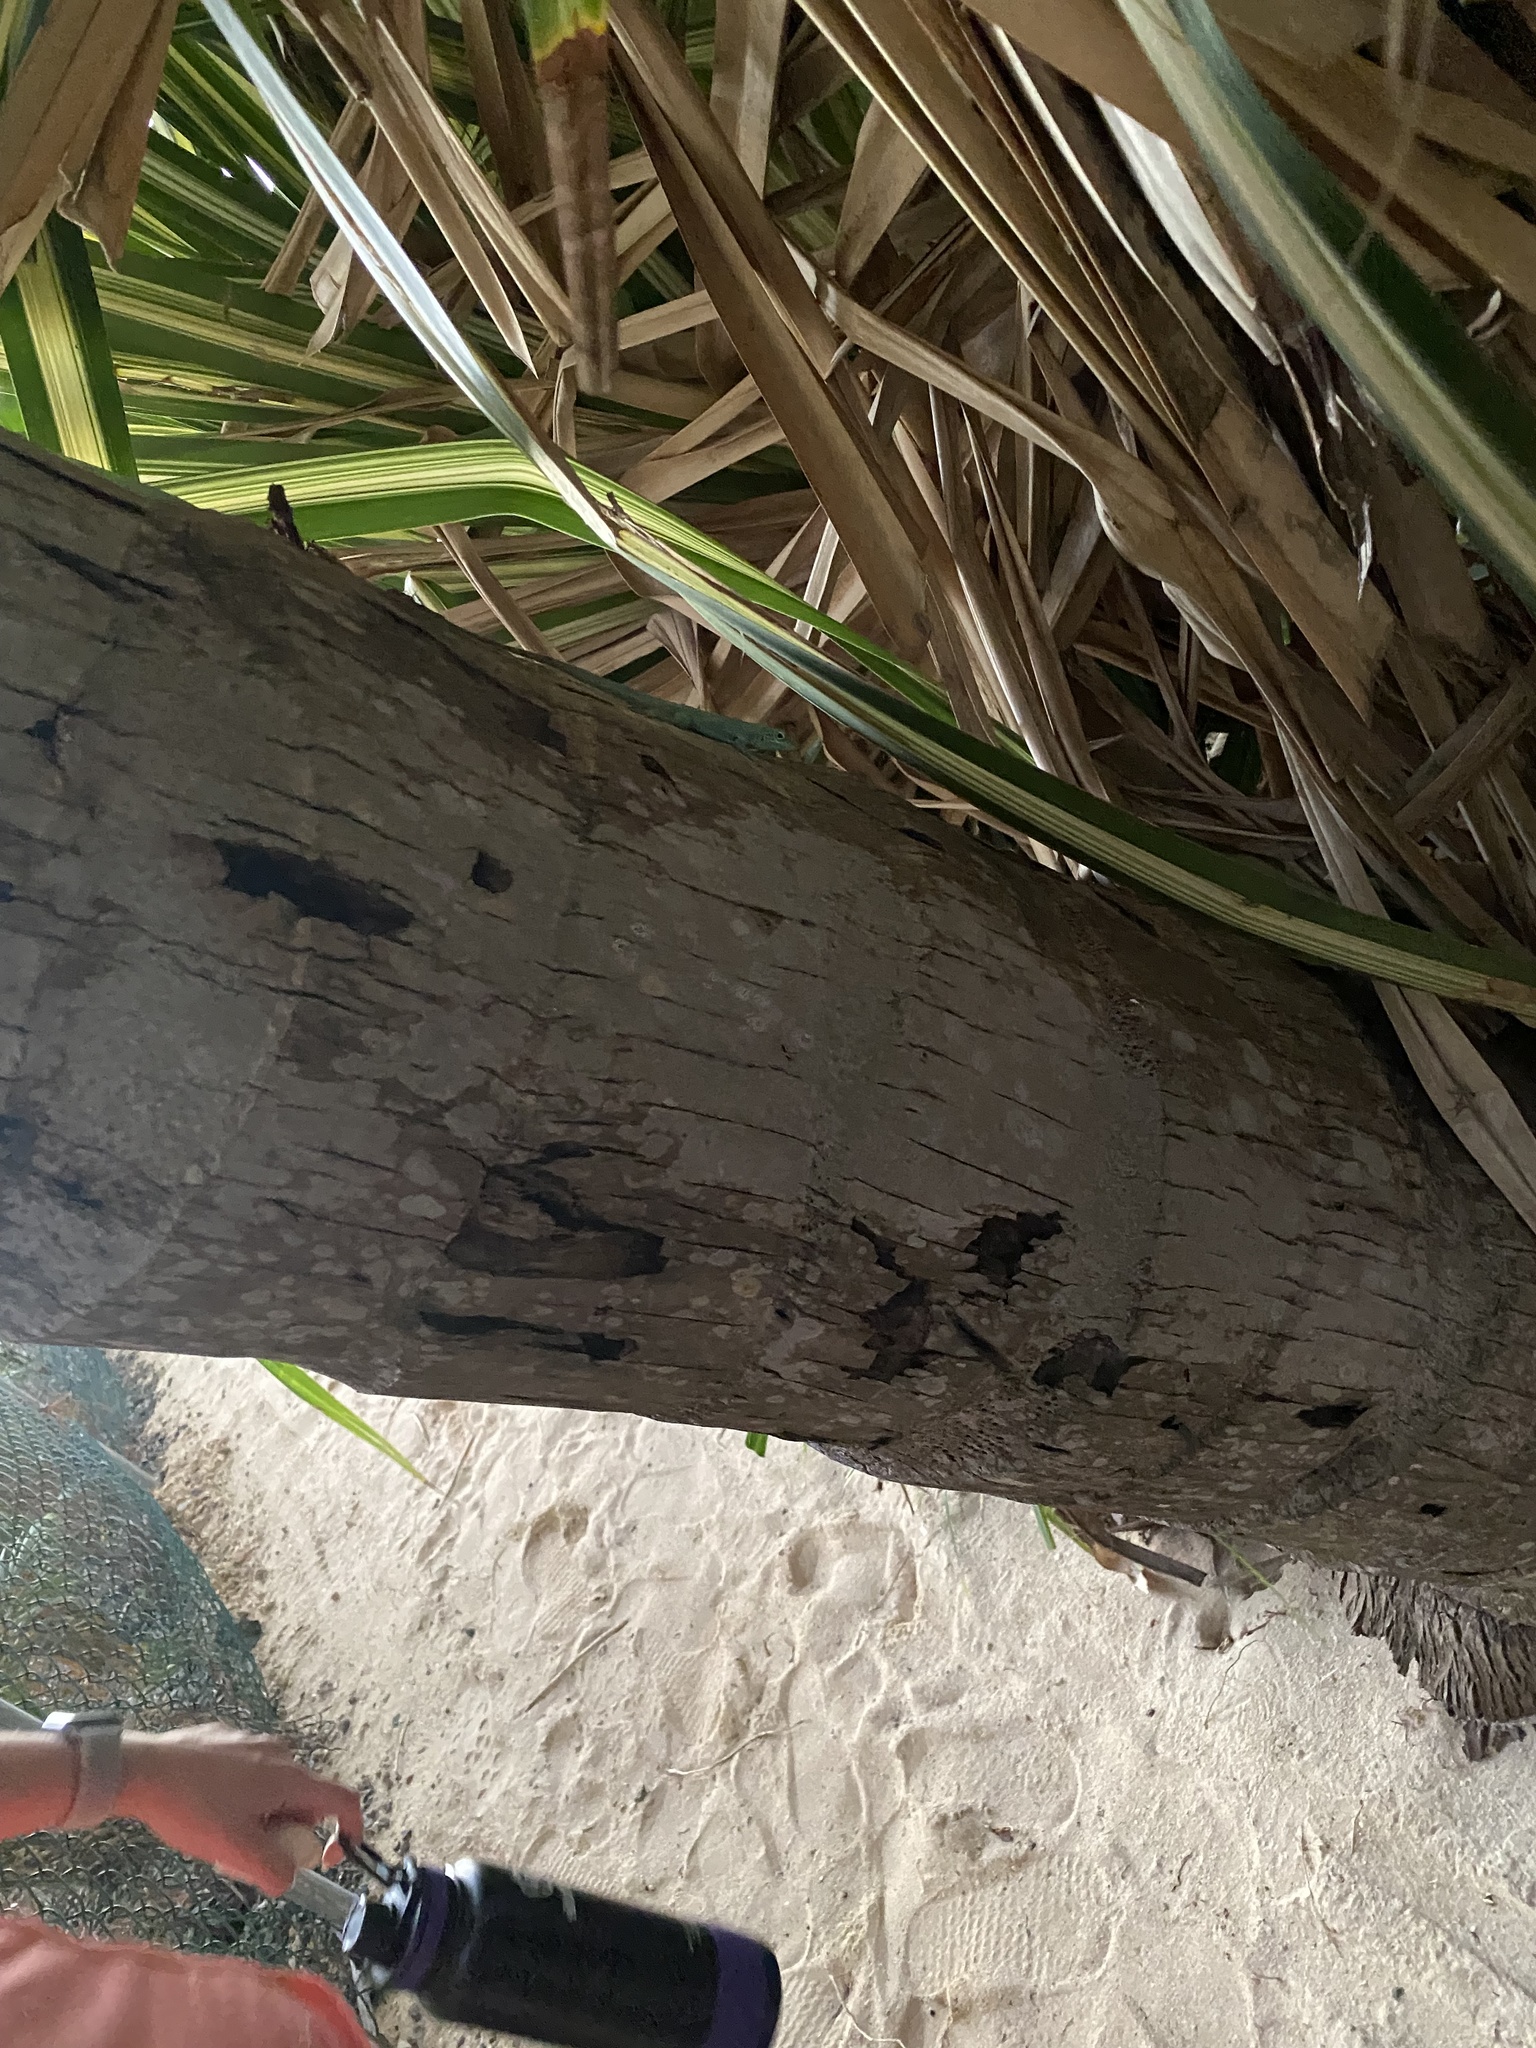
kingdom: Animalia
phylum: Chordata
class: Squamata
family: Dactyloidae
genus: Anolis
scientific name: Anolis conspersus
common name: Grand cayman anole
